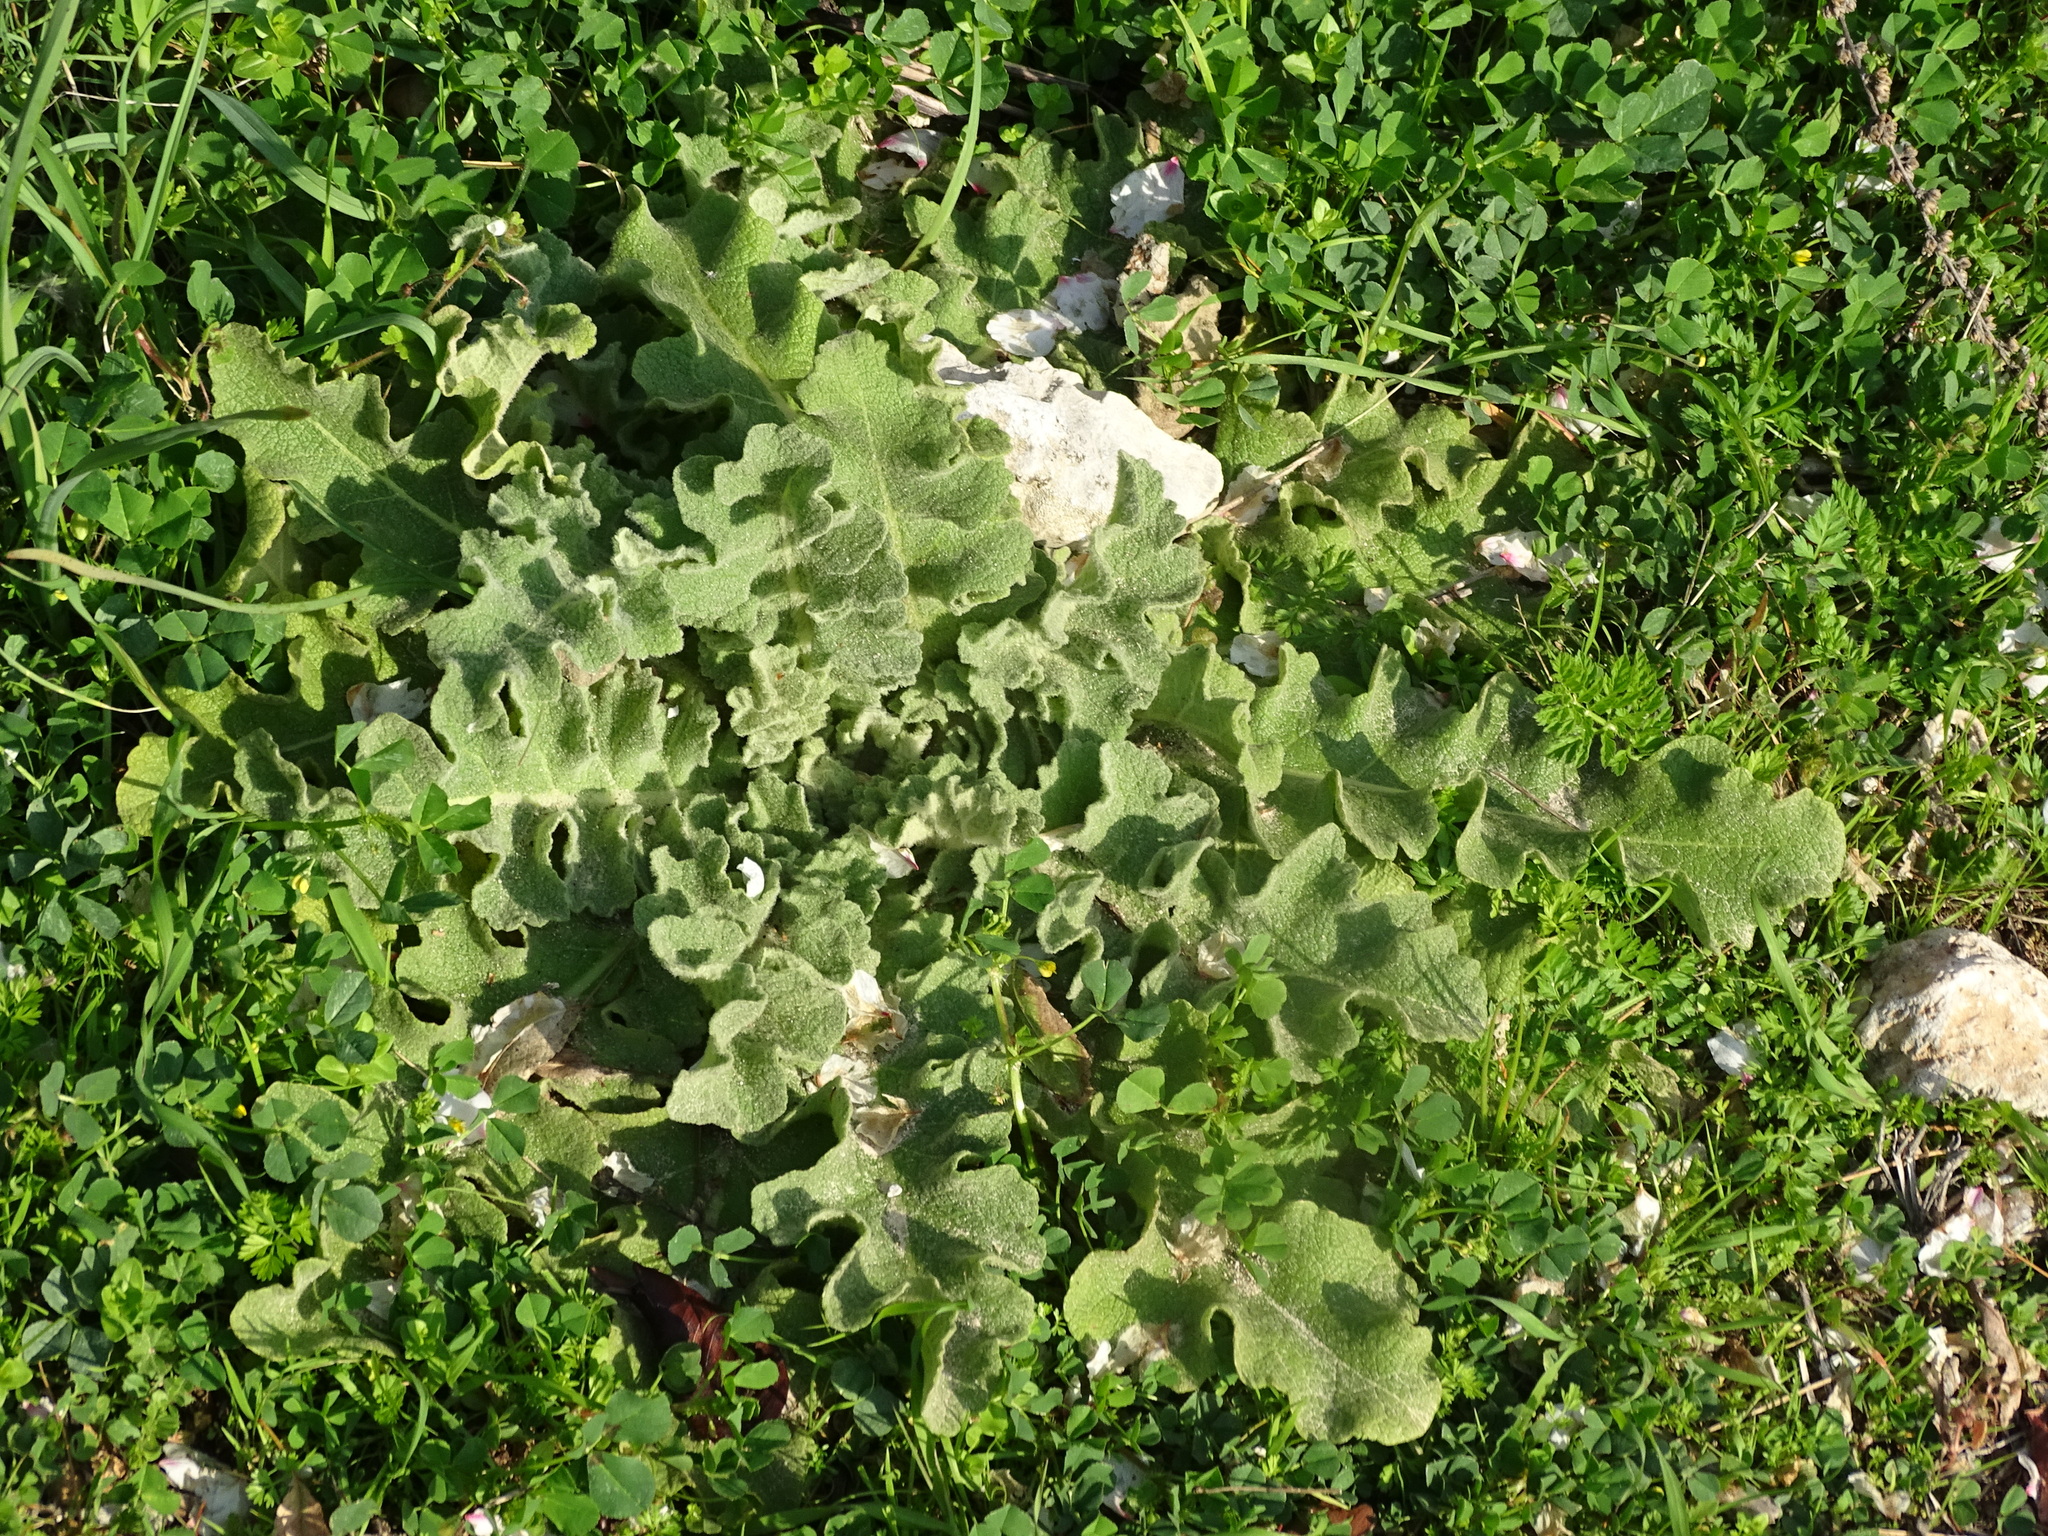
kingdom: Plantae
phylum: Tracheophyta
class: Magnoliopsida
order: Lamiales
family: Scrophulariaceae
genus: Verbascum
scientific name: Verbascum sinuatum
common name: Wavyleaf mullein
